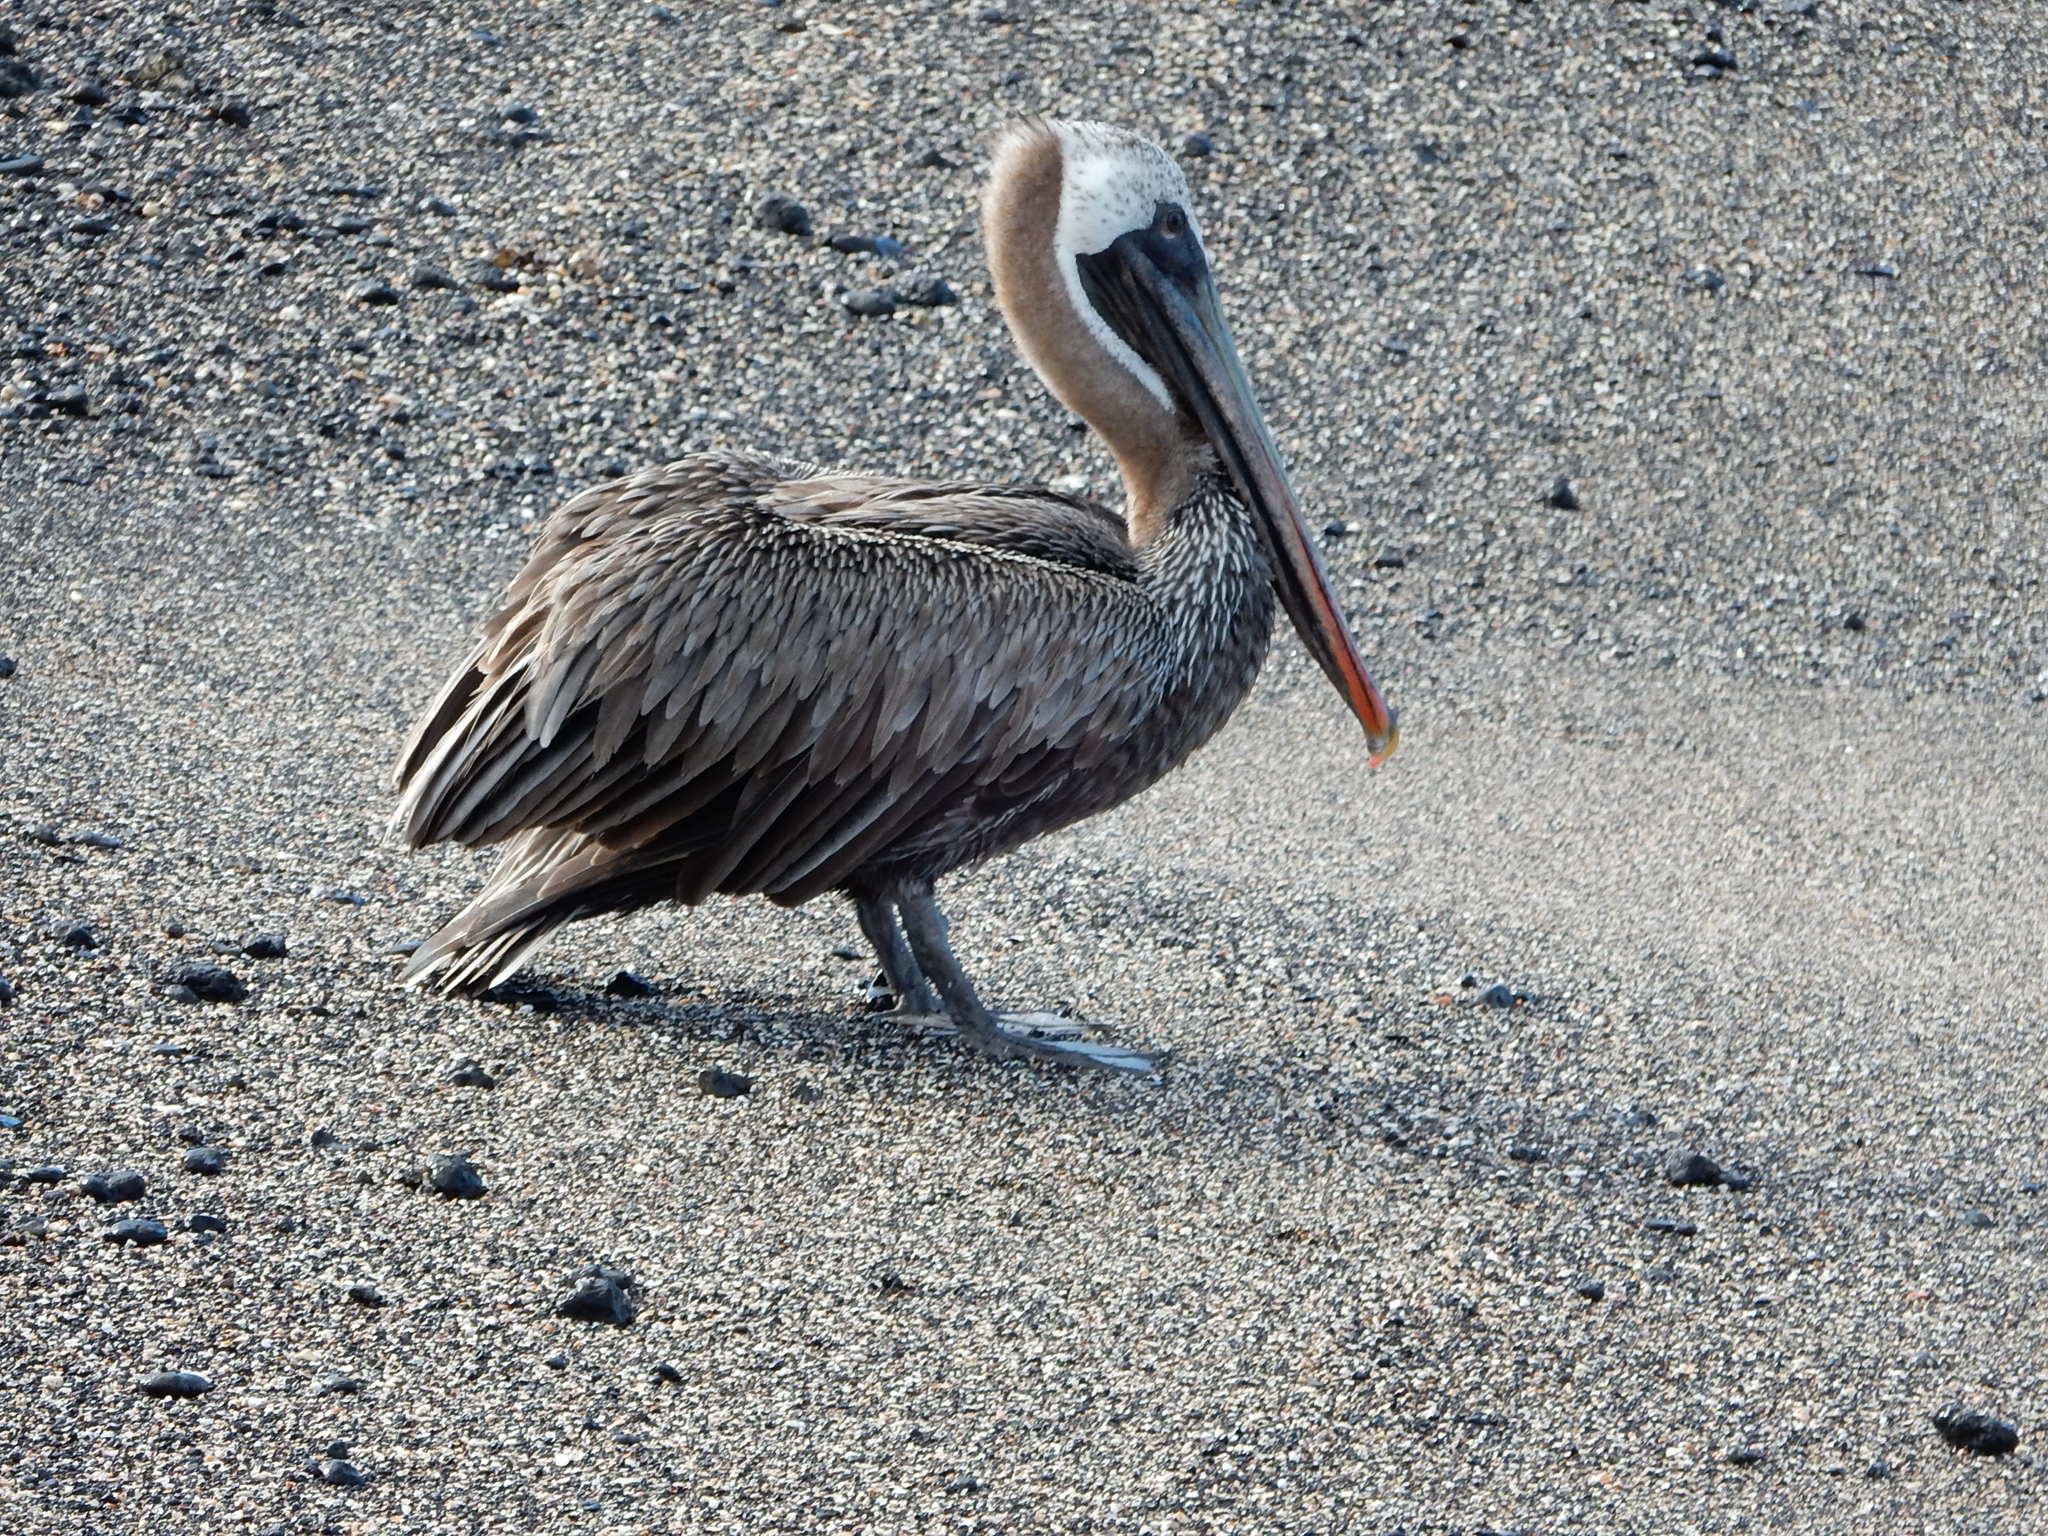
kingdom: Animalia
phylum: Chordata
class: Aves
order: Pelecaniformes
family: Pelecanidae
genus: Pelecanus
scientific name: Pelecanus occidentalis
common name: Brown pelican
